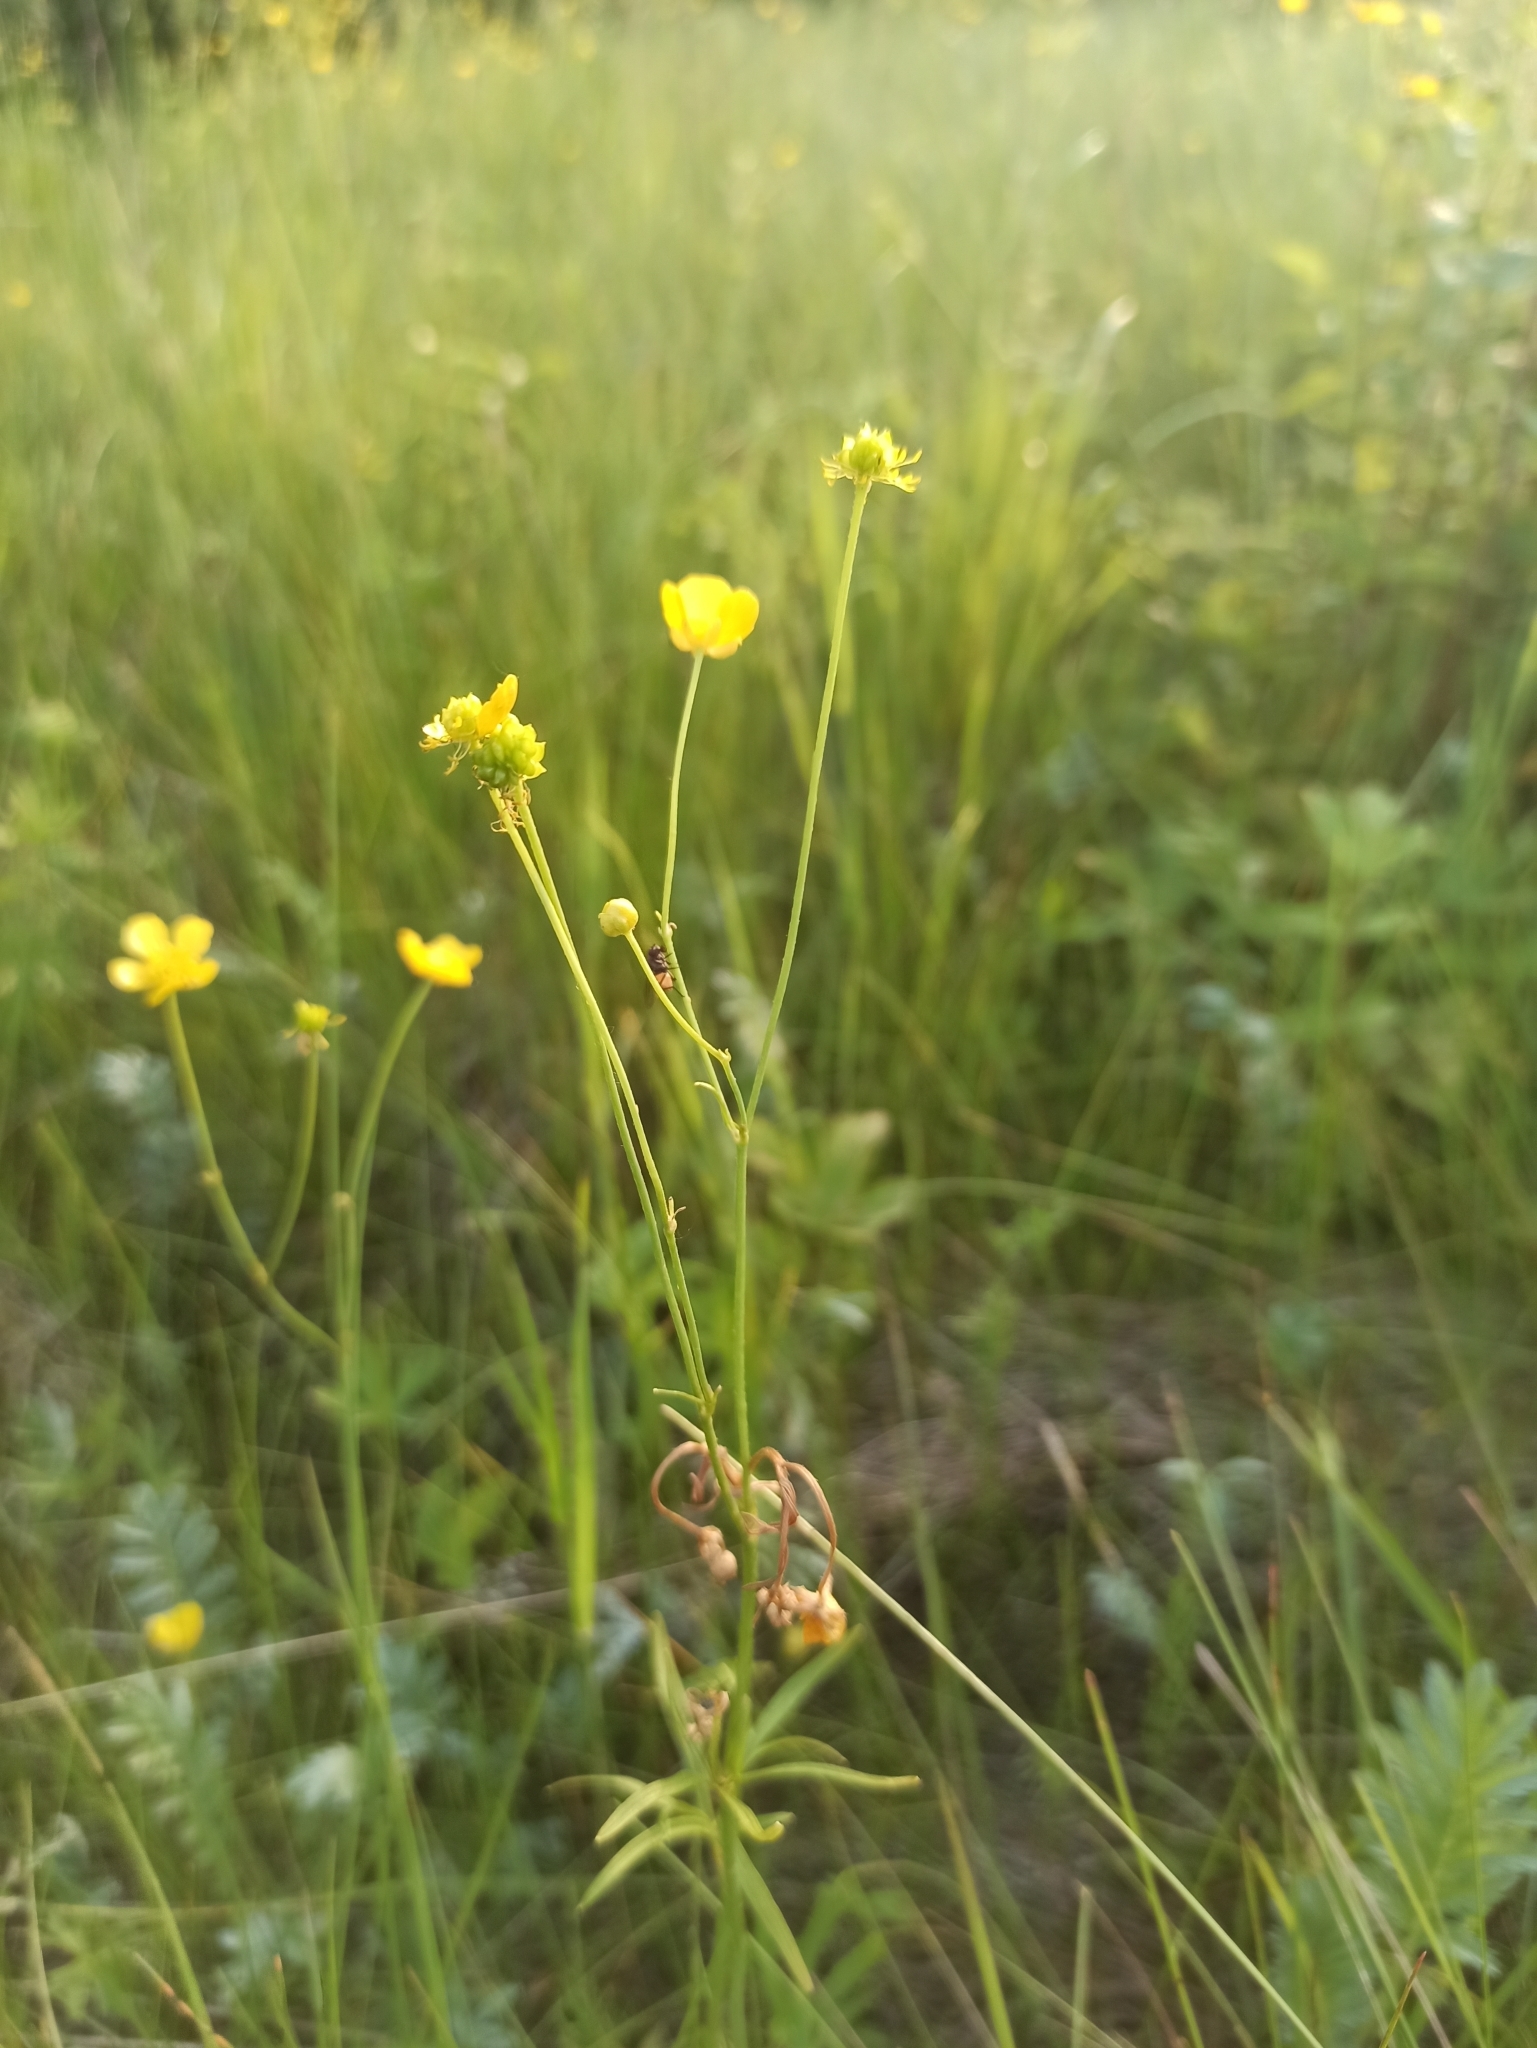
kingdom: Plantae
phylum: Tracheophyta
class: Magnoliopsida
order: Ranunculales
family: Ranunculaceae
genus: Ranunculus
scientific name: Ranunculus acris
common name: Meadow buttercup
